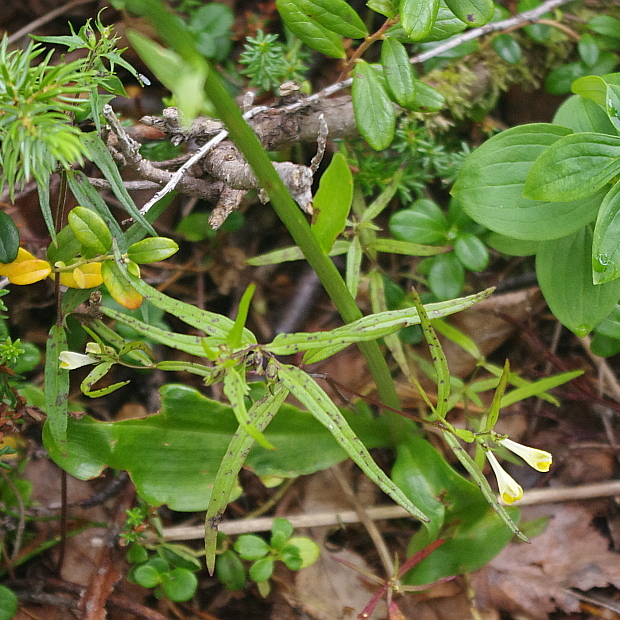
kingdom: Plantae
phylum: Tracheophyta
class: Magnoliopsida
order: Lamiales
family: Orobanchaceae
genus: Melampyrum
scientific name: Melampyrum pratense
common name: Common cow-wheat
